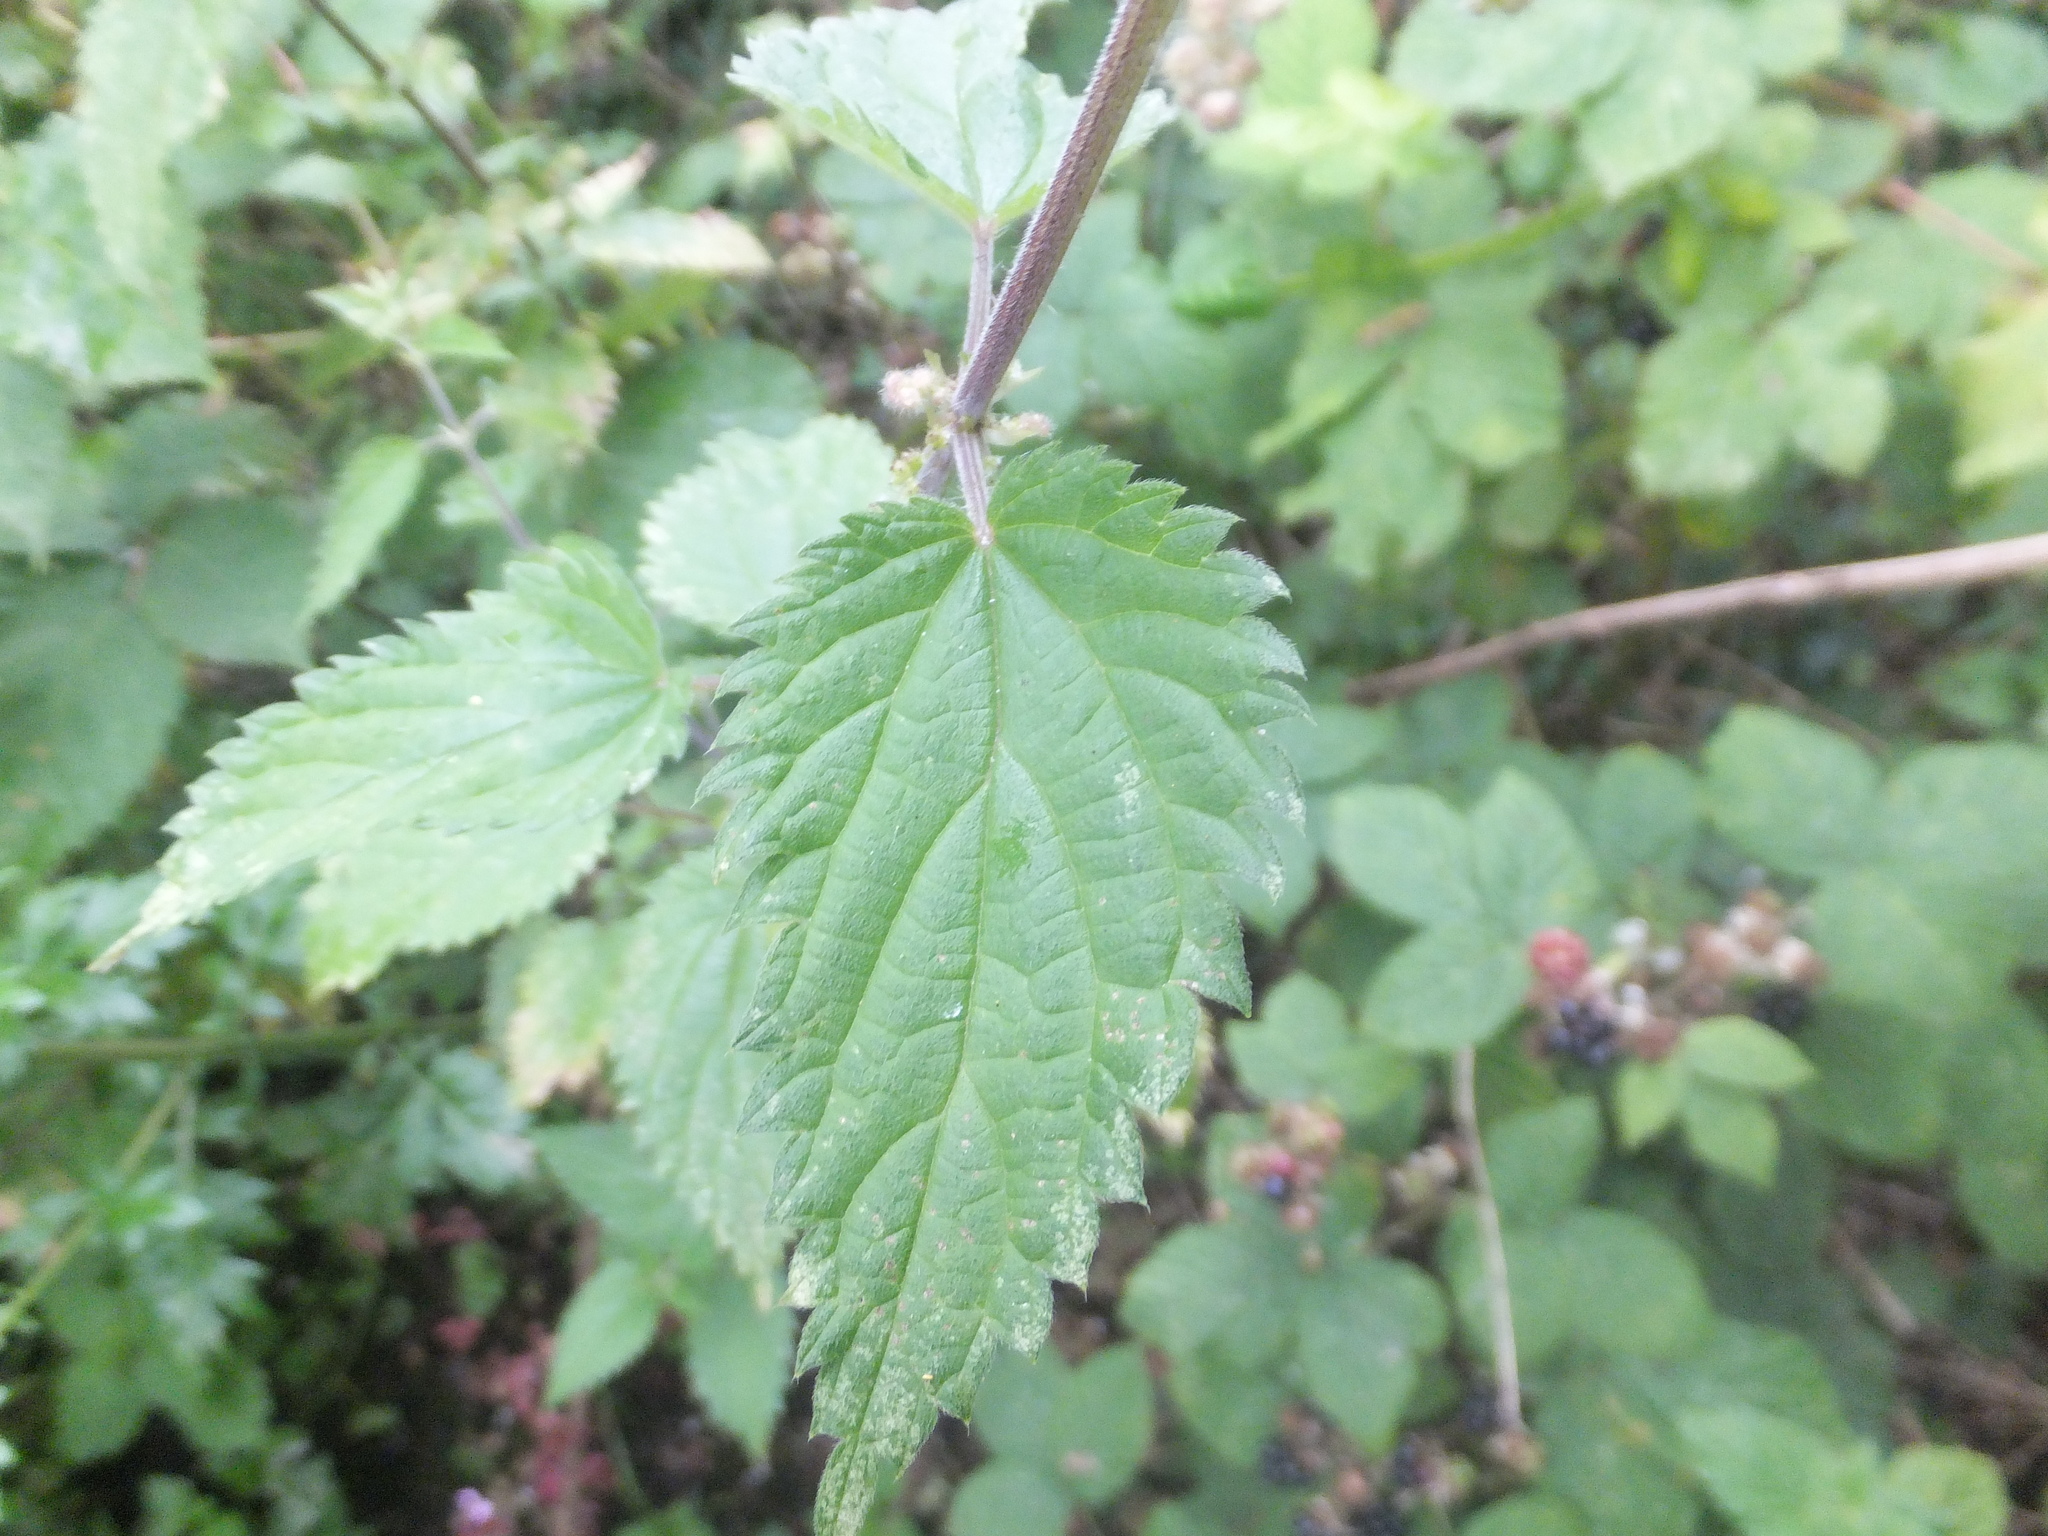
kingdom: Plantae
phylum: Tracheophyta
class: Magnoliopsida
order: Rosales
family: Urticaceae
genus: Urtica
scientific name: Urtica dioica
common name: Common nettle
